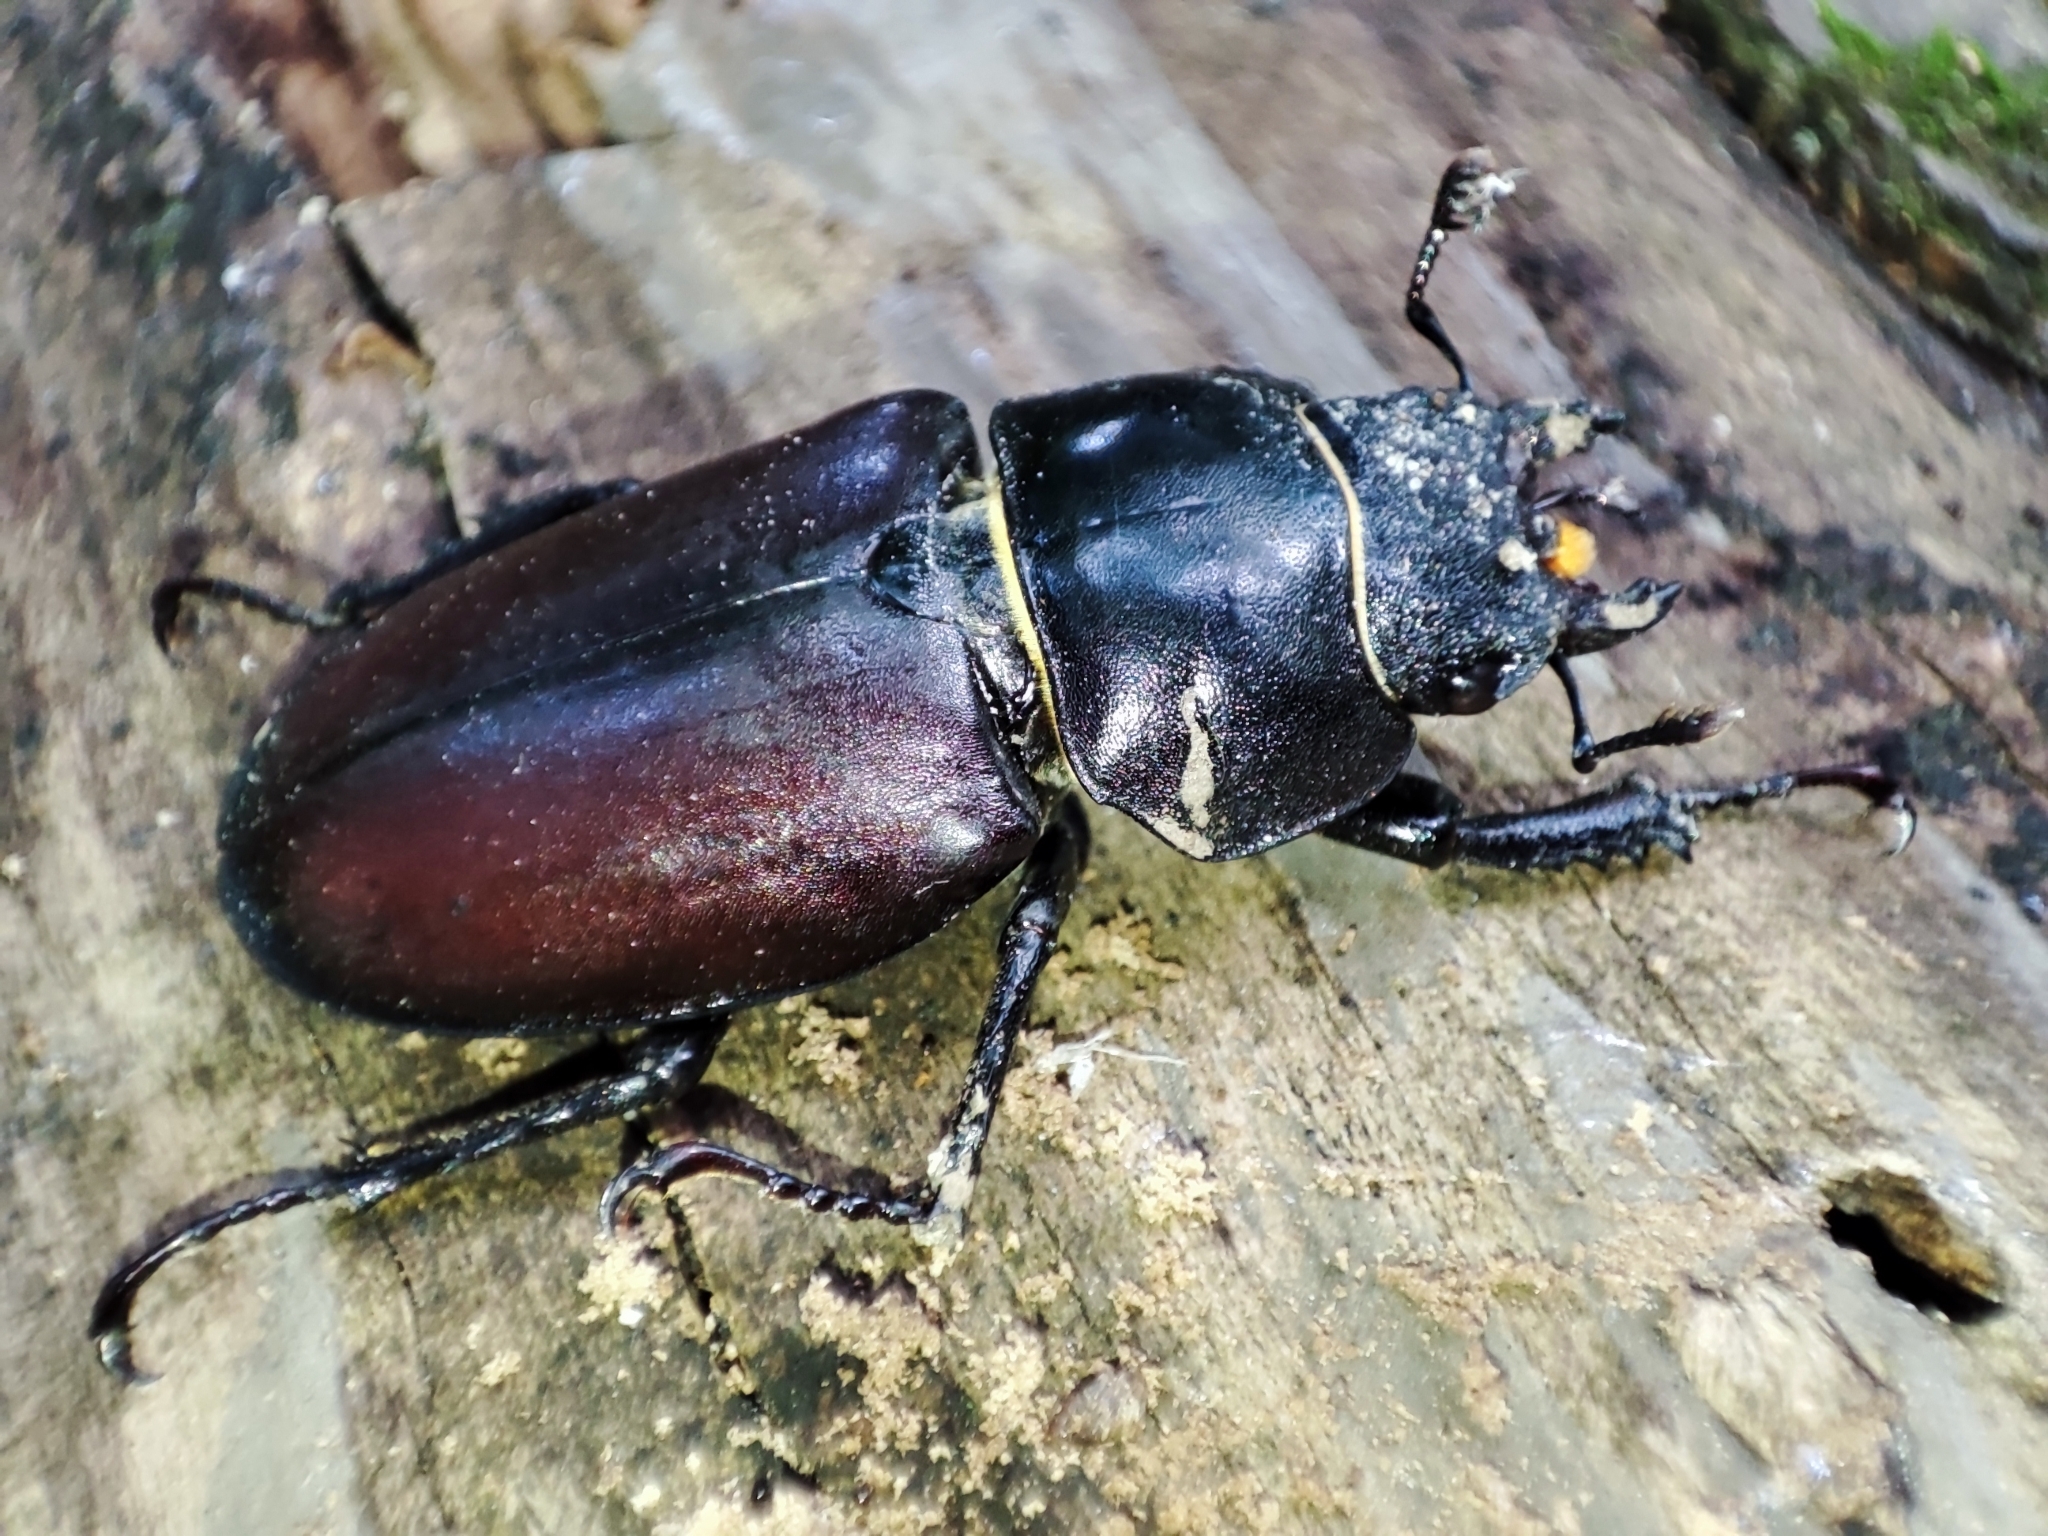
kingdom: Animalia
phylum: Arthropoda
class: Insecta
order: Coleoptera
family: Lucanidae
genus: Lucanus
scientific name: Lucanus cervus
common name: Stag beetle
